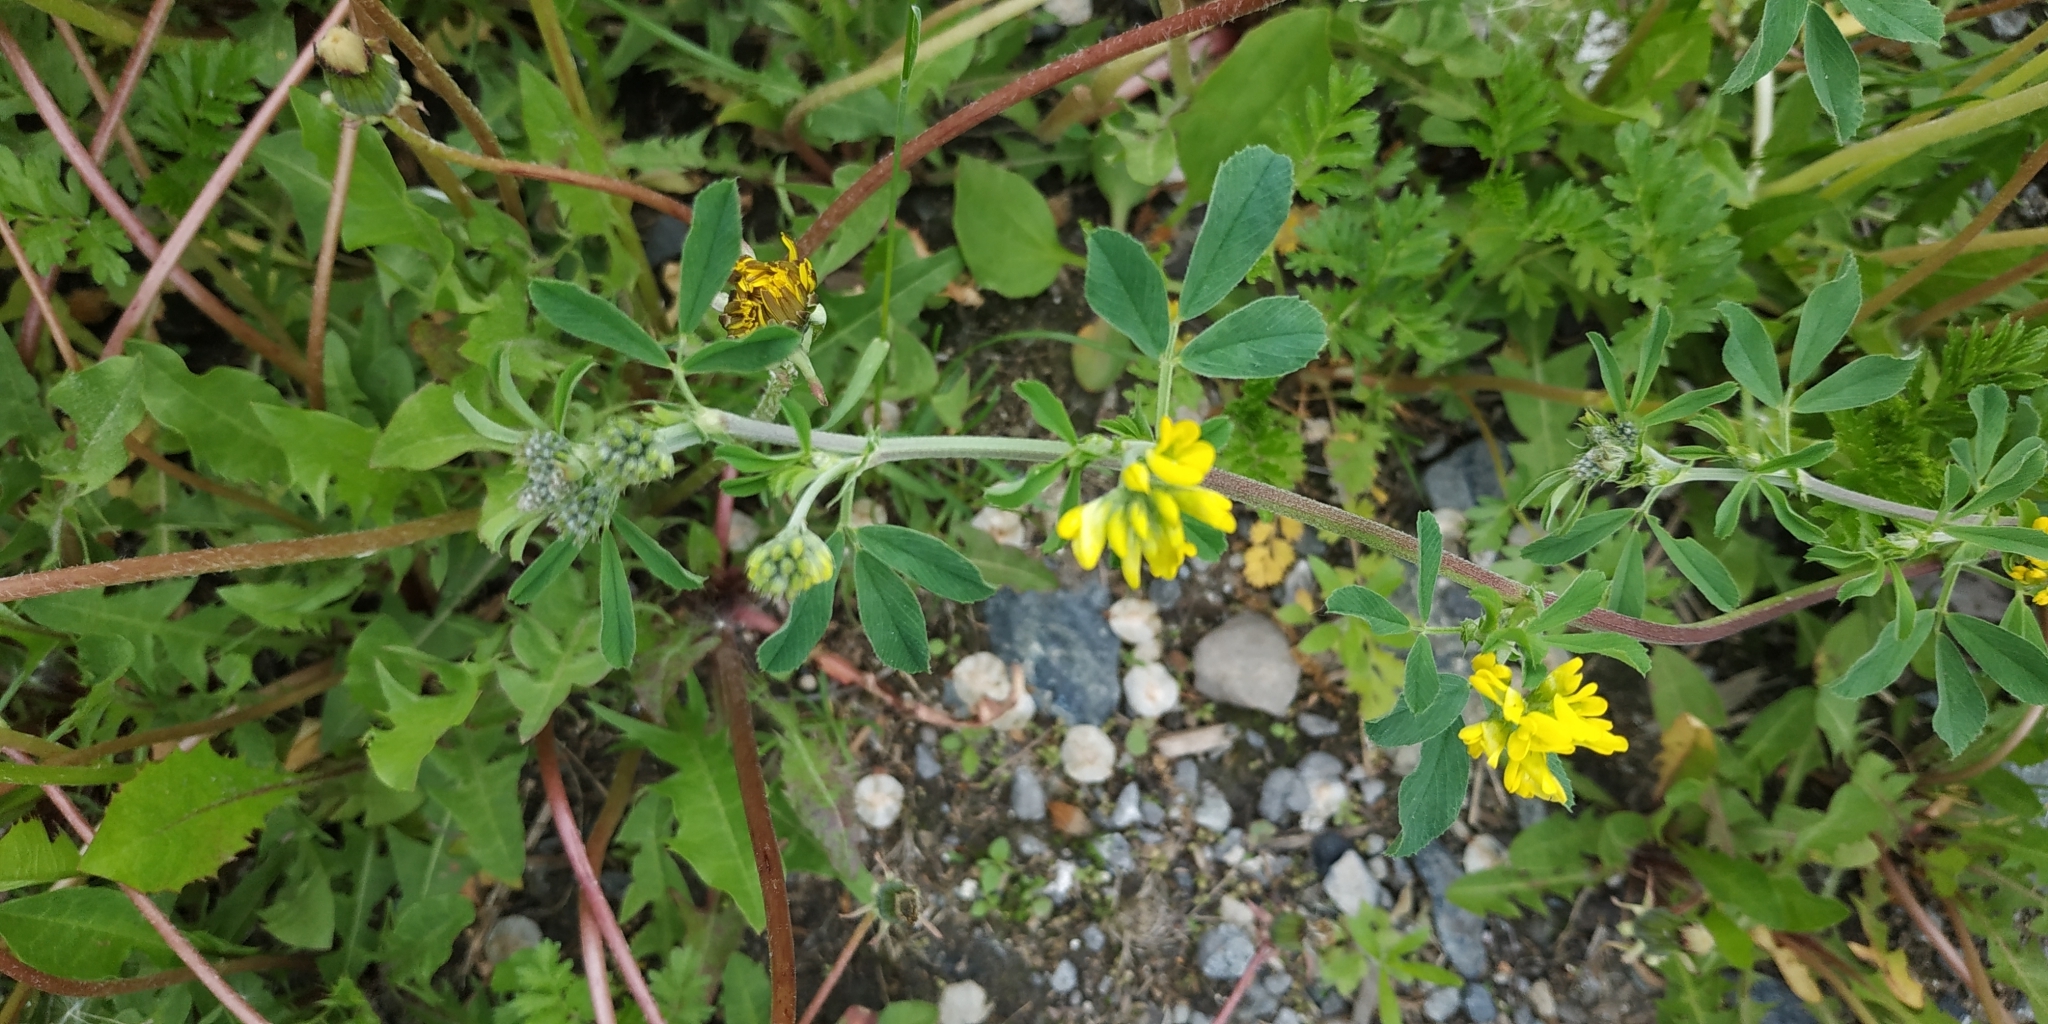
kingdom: Plantae
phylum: Tracheophyta
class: Magnoliopsida
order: Fabales
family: Fabaceae
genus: Medicago
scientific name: Medicago falcata
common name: Sickle medick
